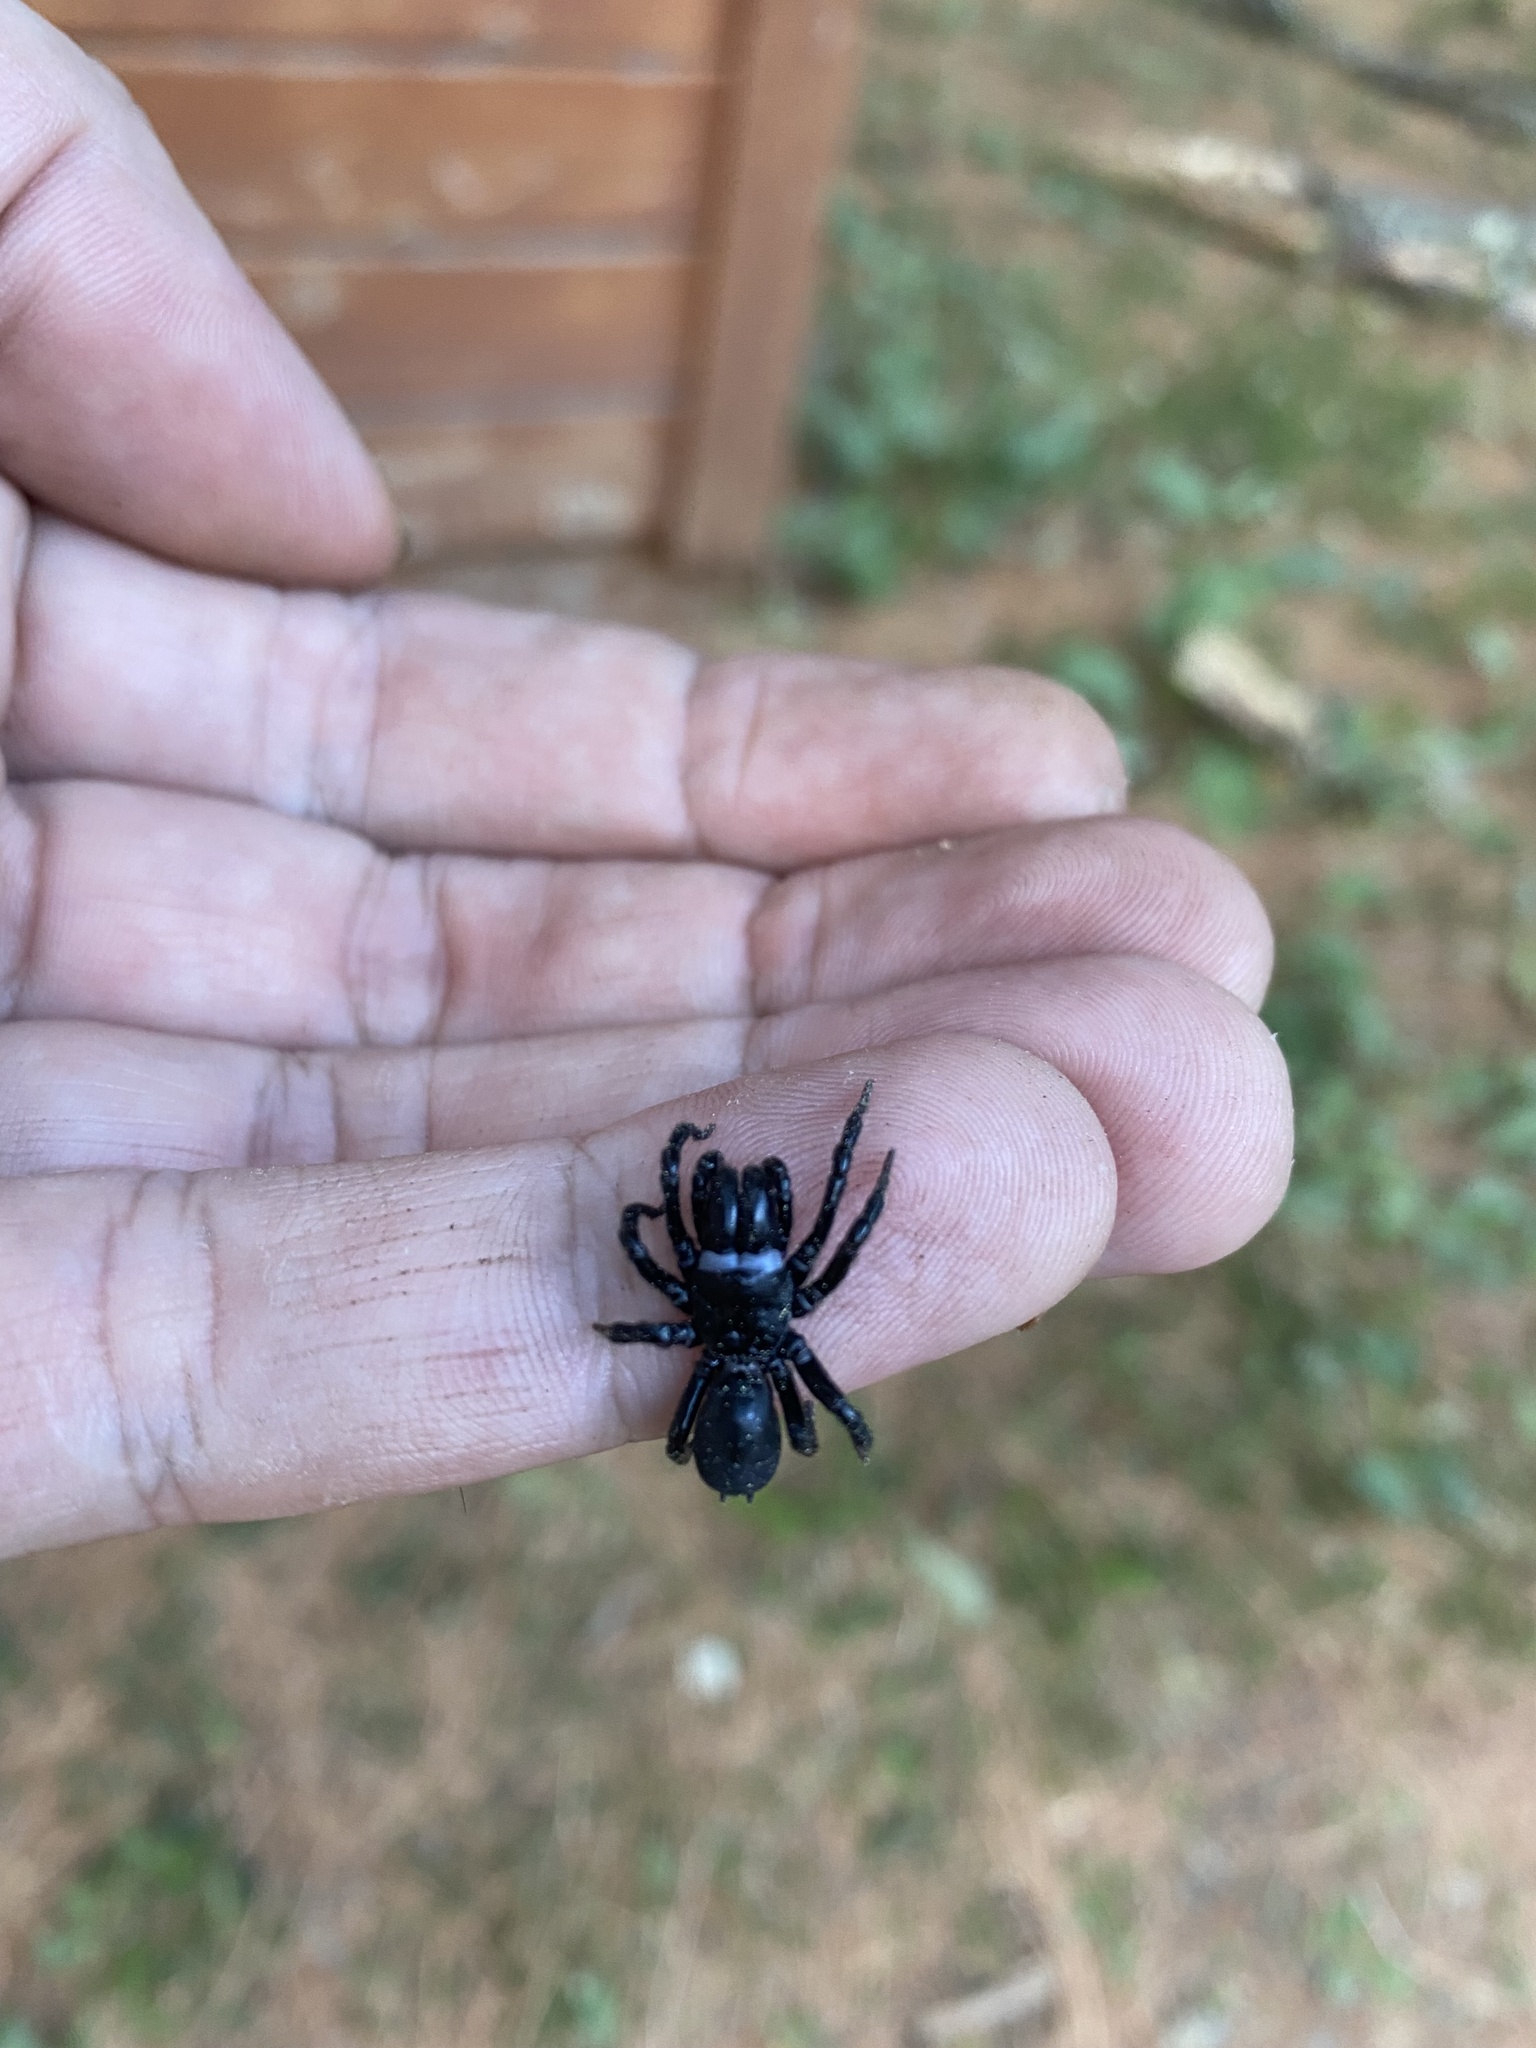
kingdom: Animalia
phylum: Arthropoda
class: Arachnida
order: Araneae
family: Atypidae
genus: Sphodros
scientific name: Sphodros niger
